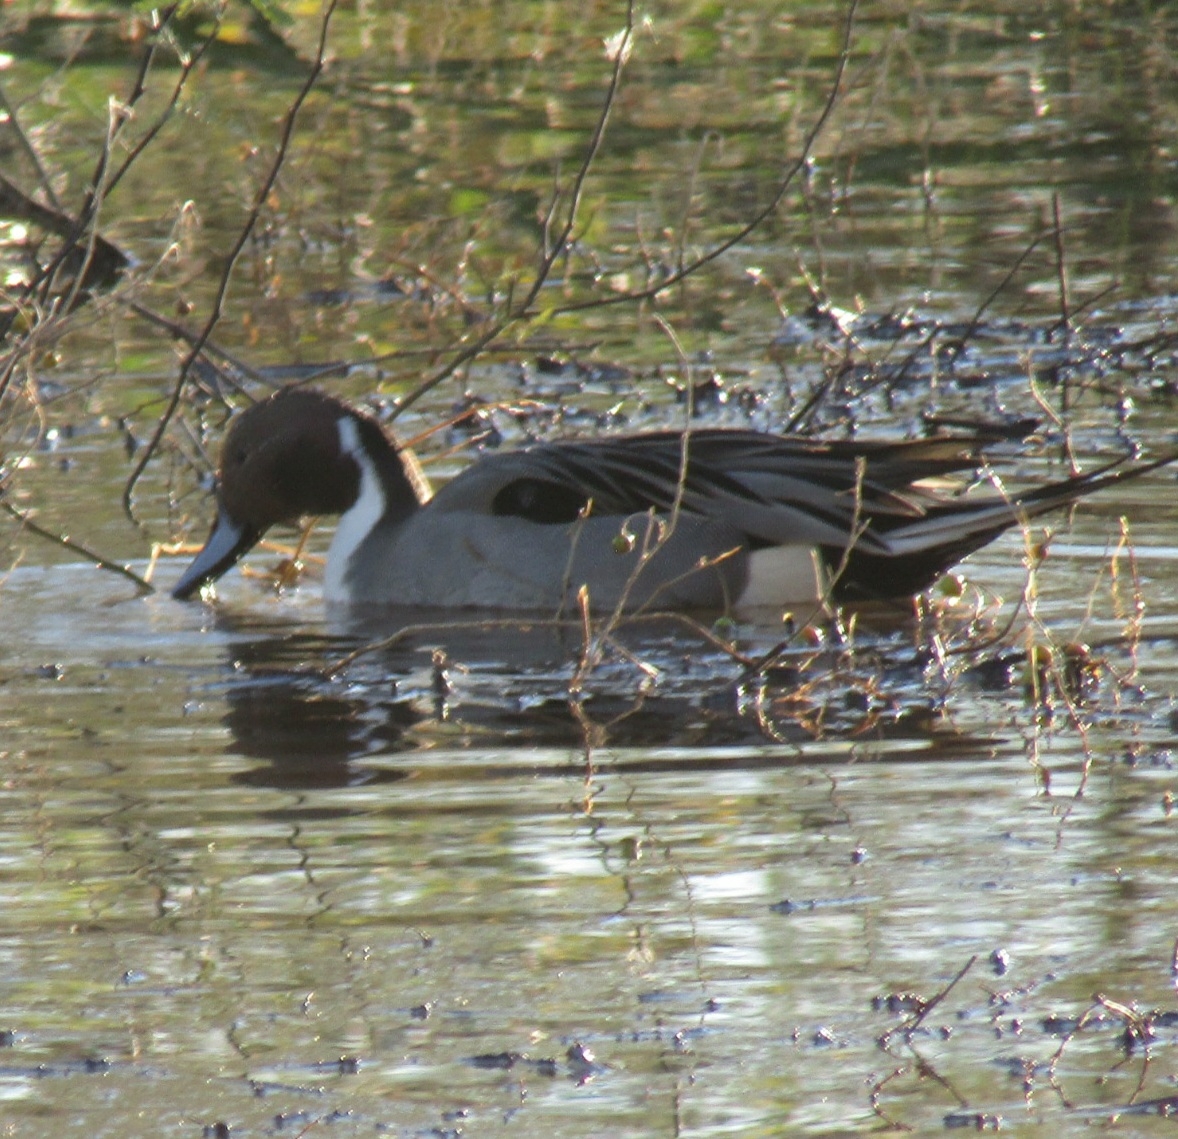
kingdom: Animalia
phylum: Chordata
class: Aves
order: Anseriformes
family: Anatidae
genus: Anas
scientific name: Anas acuta
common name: Northern pintail
